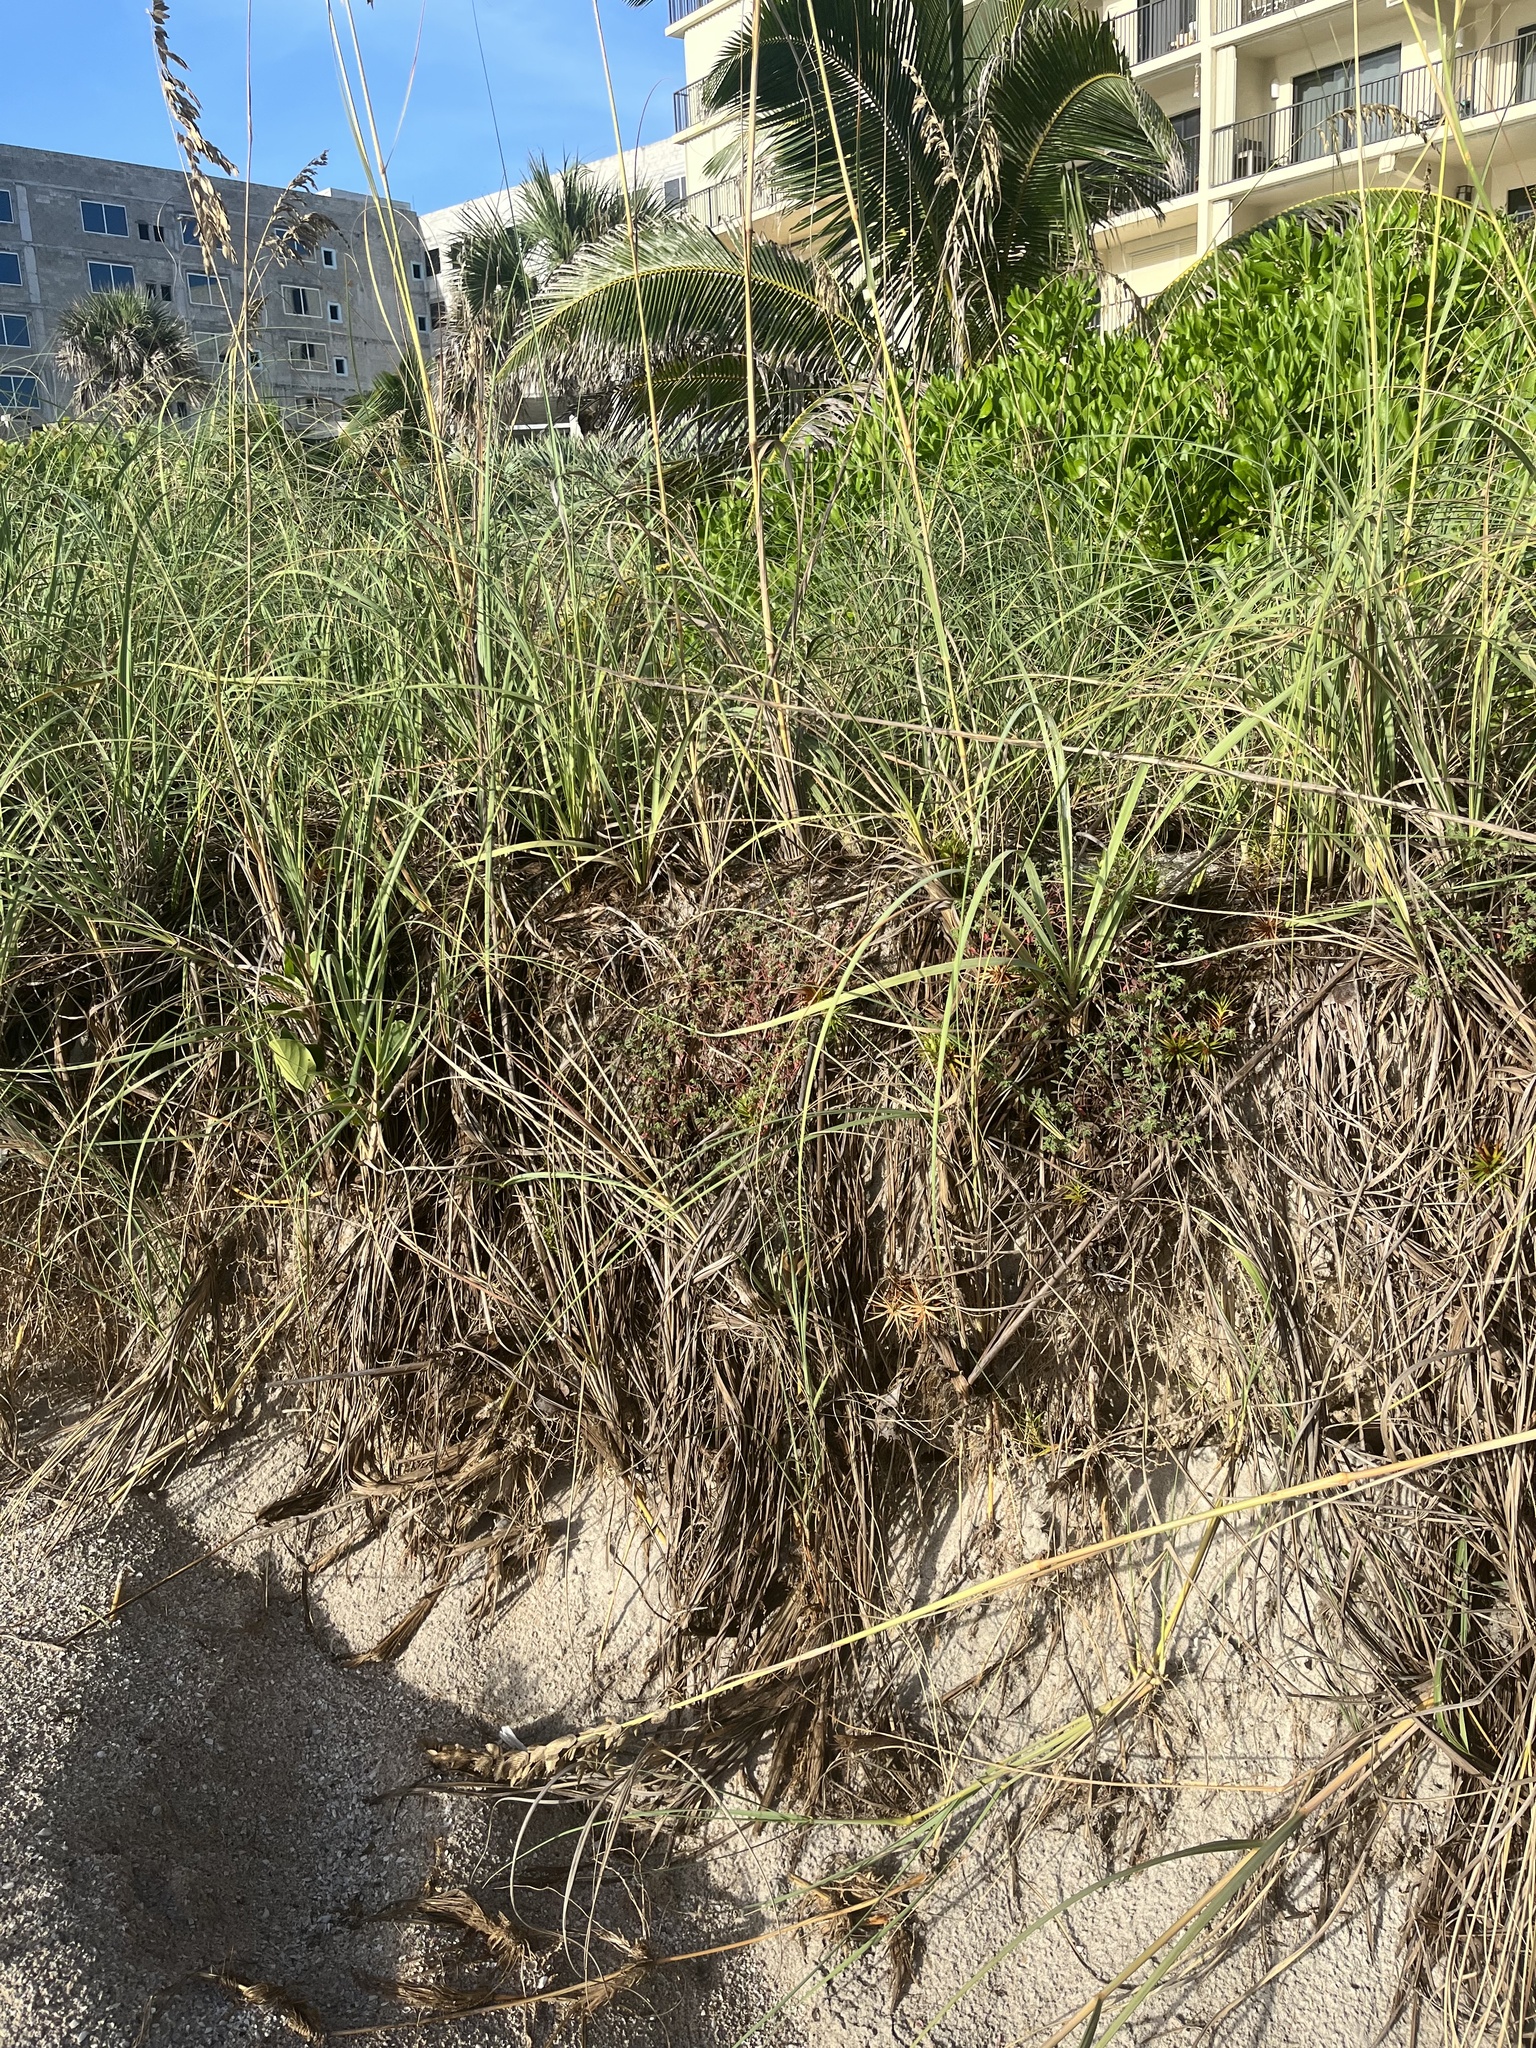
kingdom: Plantae
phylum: Tracheophyta
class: Liliopsida
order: Poales
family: Cyperaceae
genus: Cyperus
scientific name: Cyperus pedunculatus
